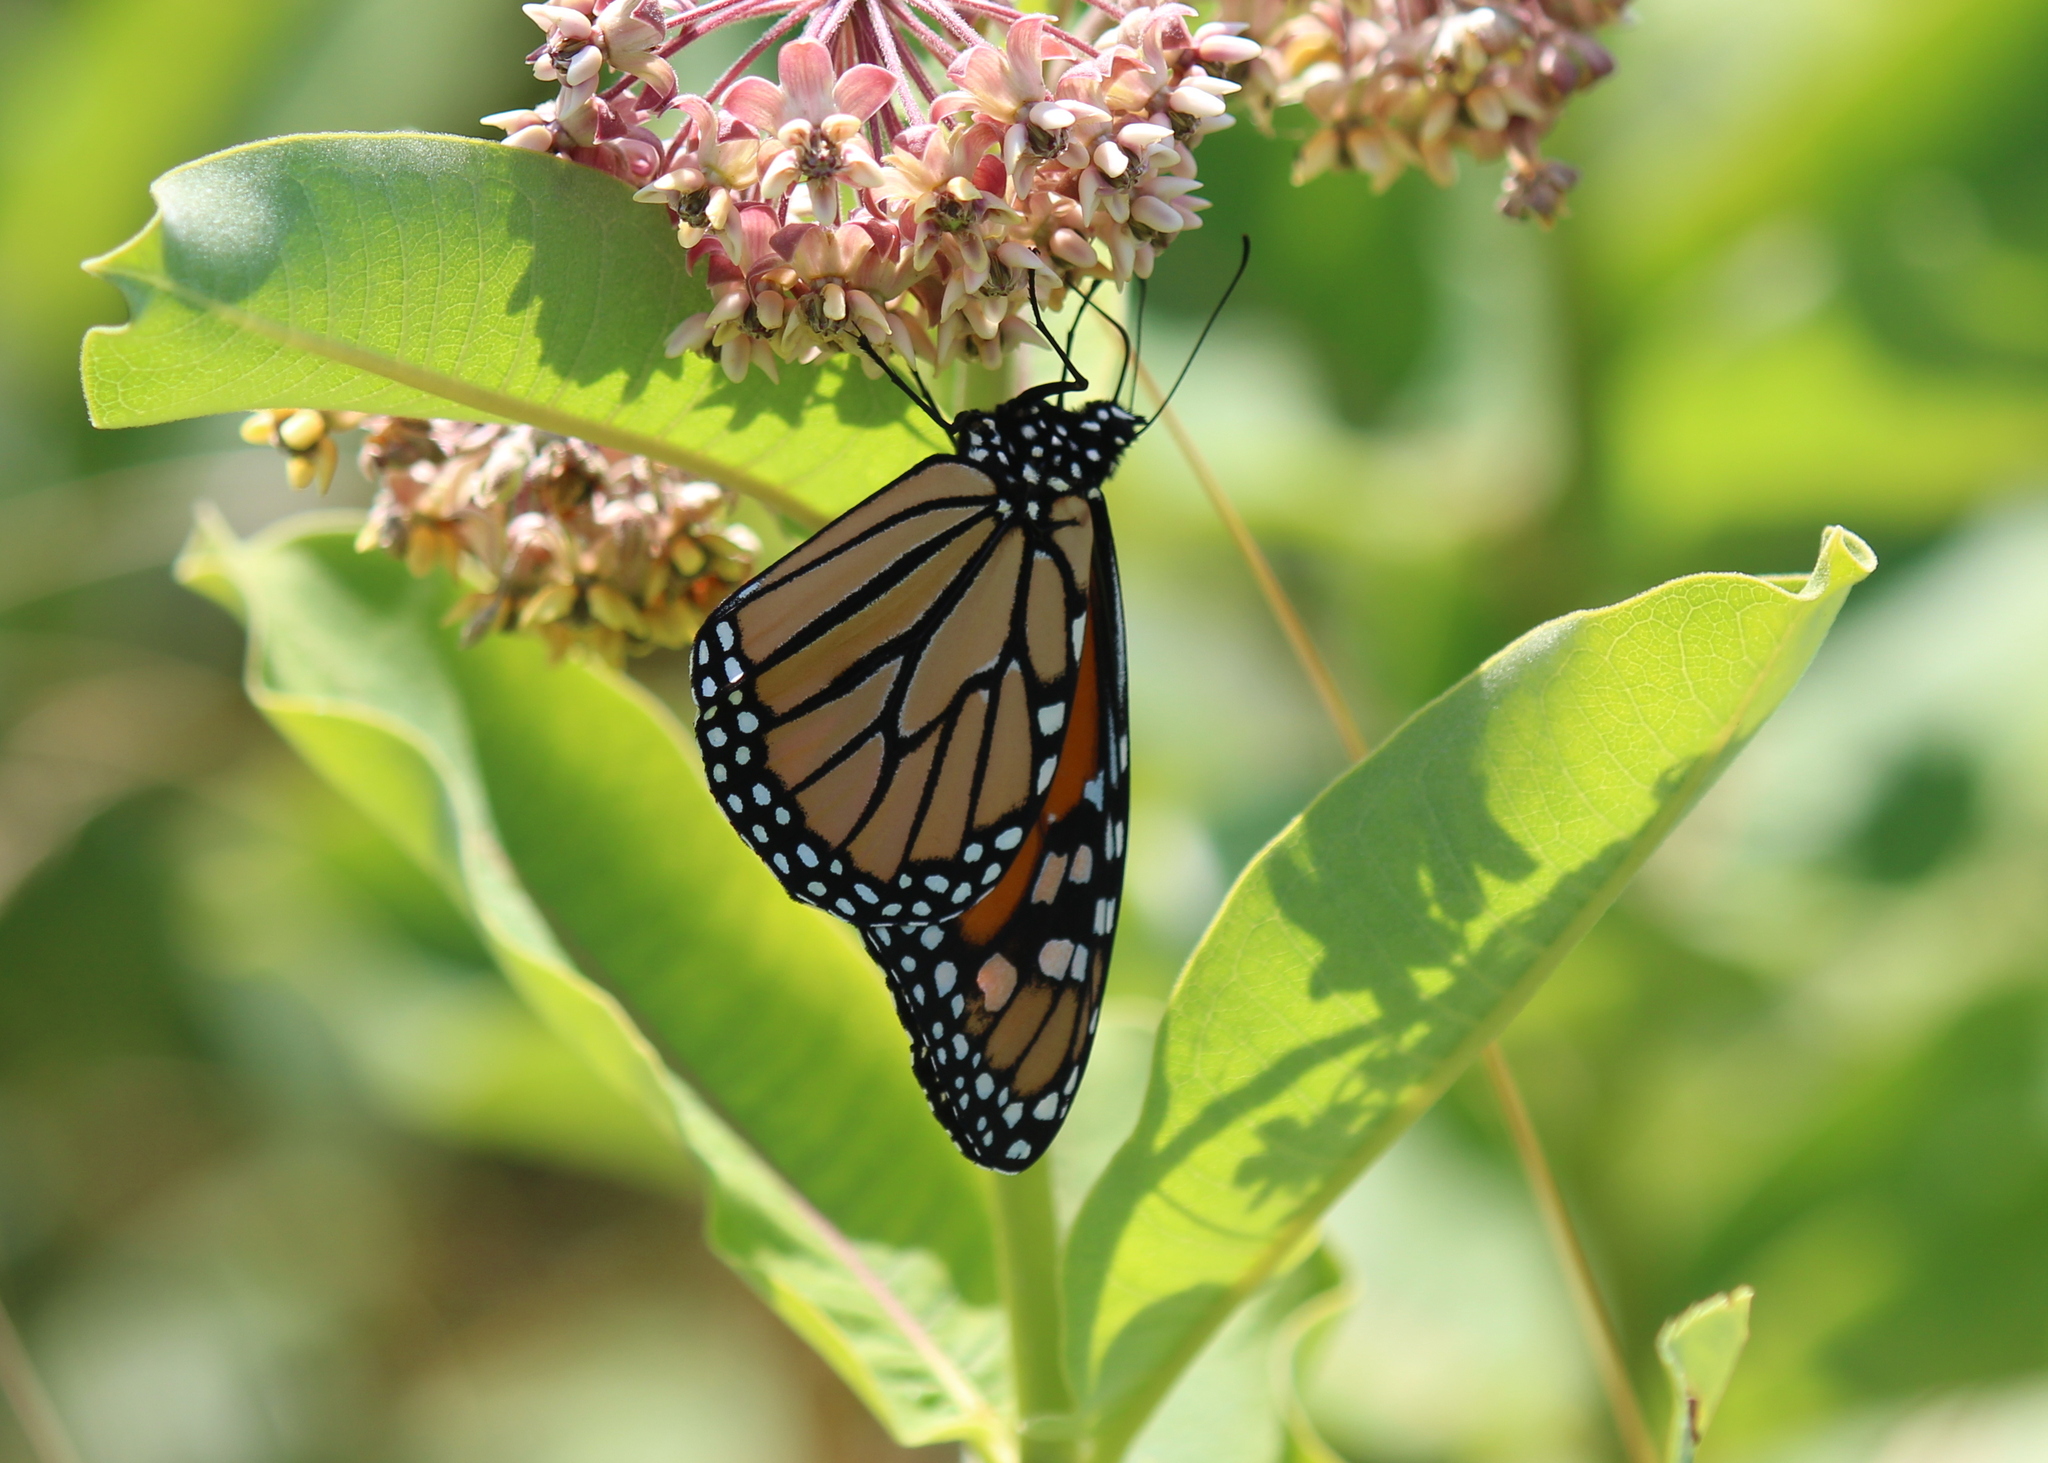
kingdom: Animalia
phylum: Arthropoda
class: Insecta
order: Lepidoptera
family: Nymphalidae
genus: Danaus
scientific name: Danaus plexippus
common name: Monarch
